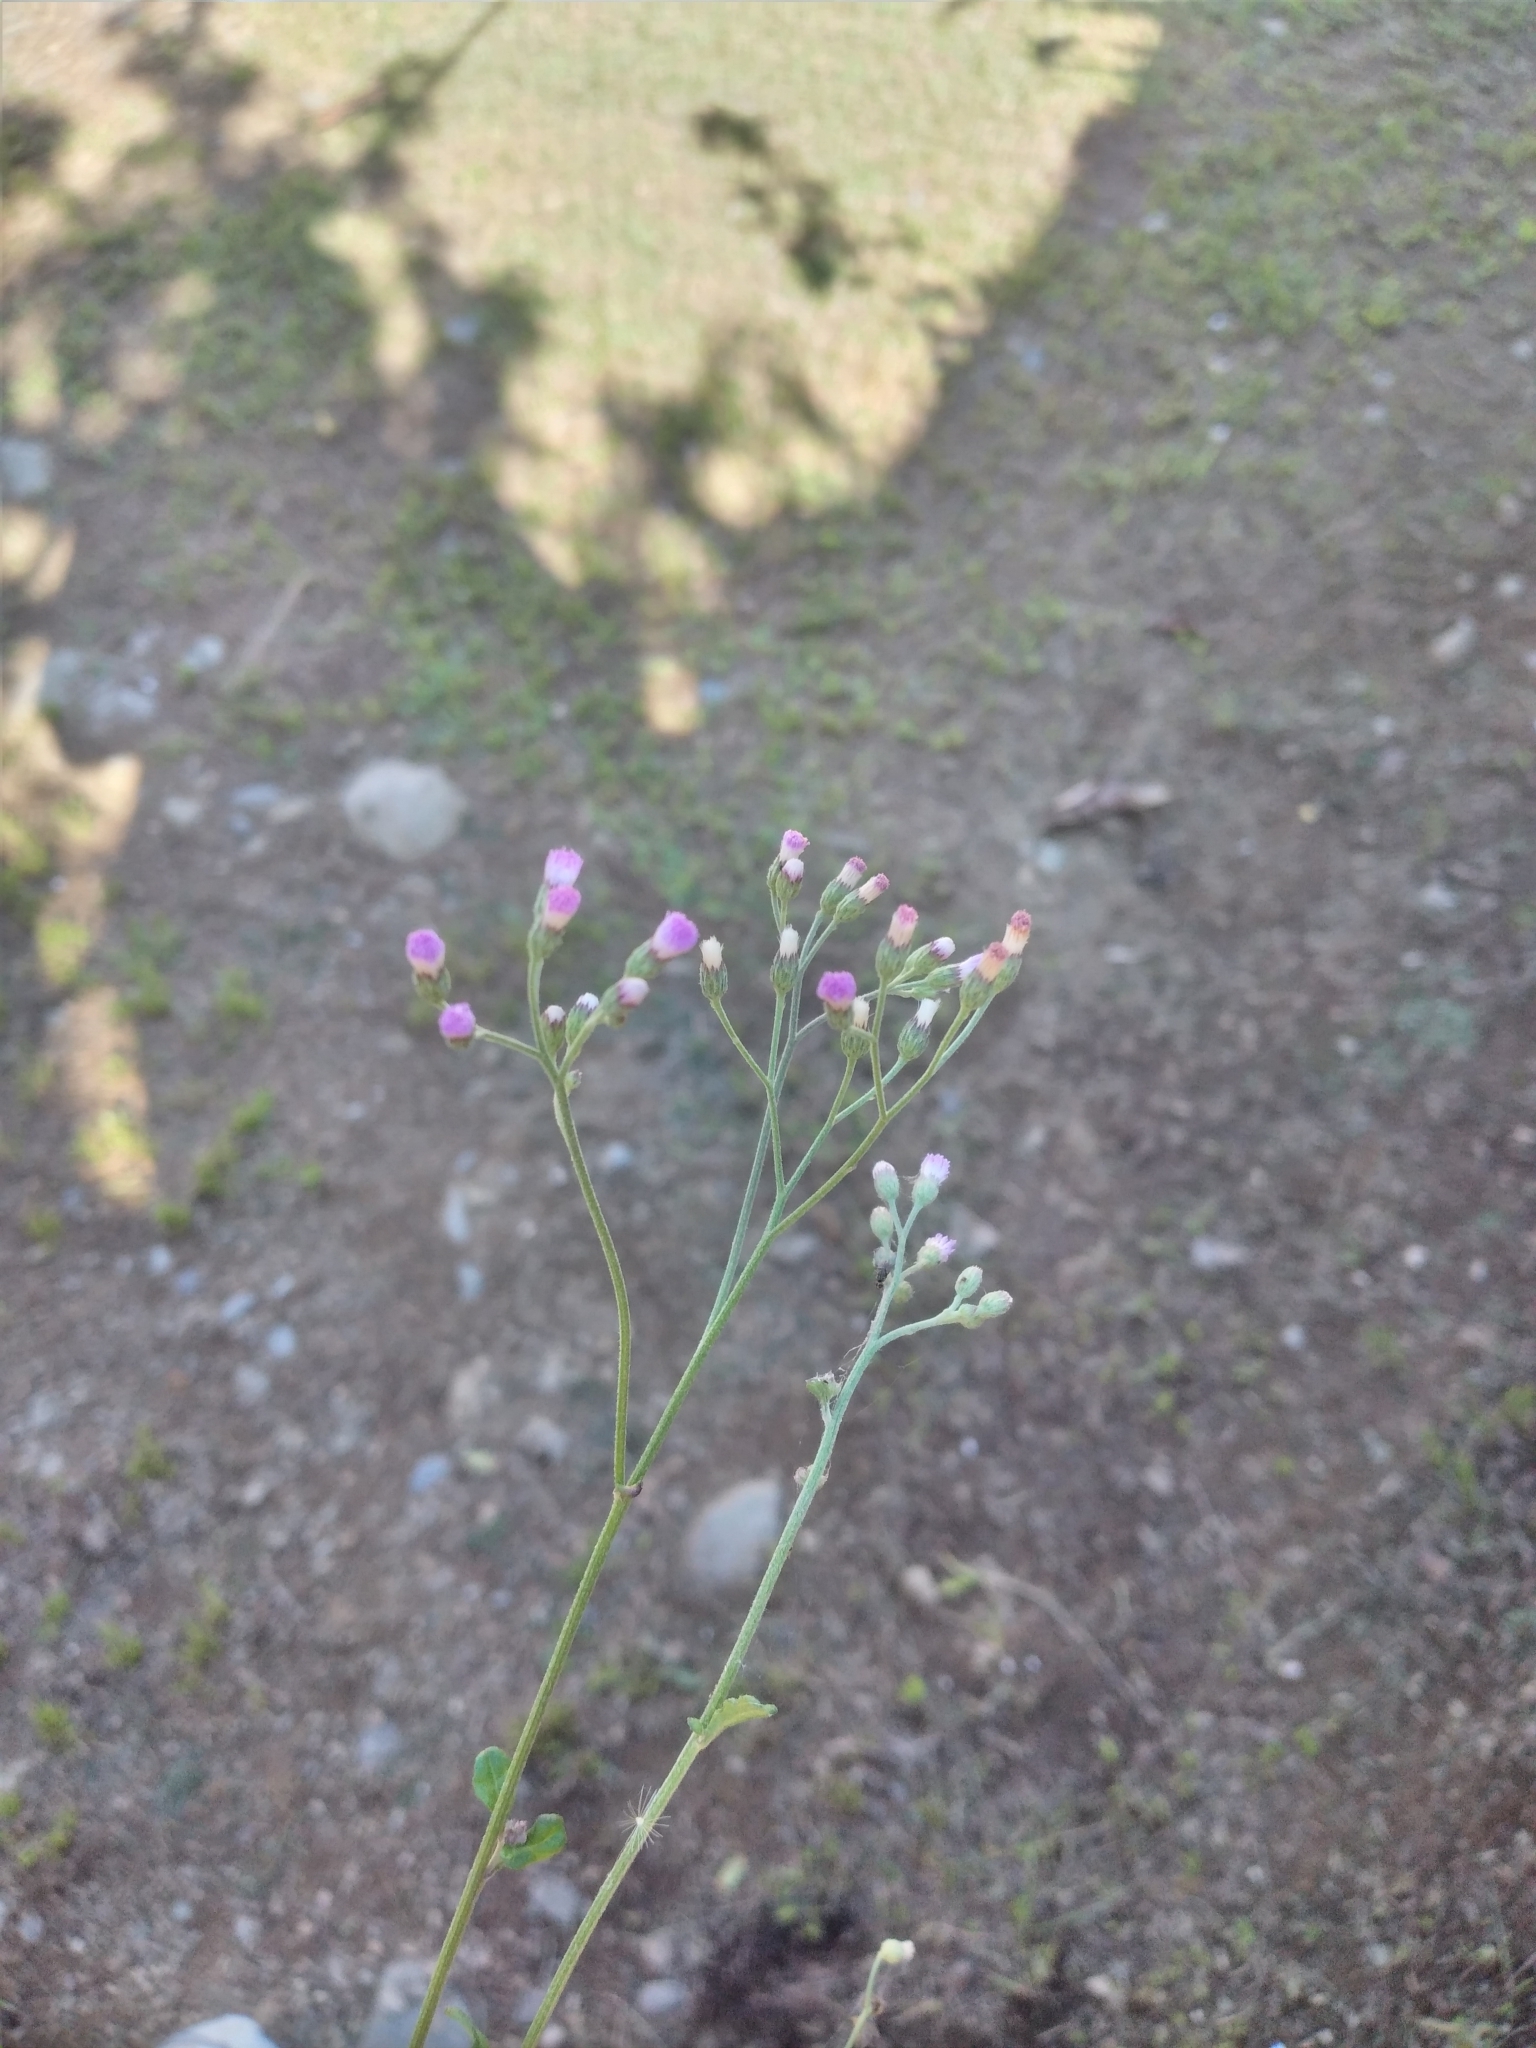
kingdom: Plantae
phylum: Tracheophyta
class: Magnoliopsida
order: Asterales
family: Asteraceae
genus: Cyanthillium
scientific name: Cyanthillium cinereum
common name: Little ironweed
